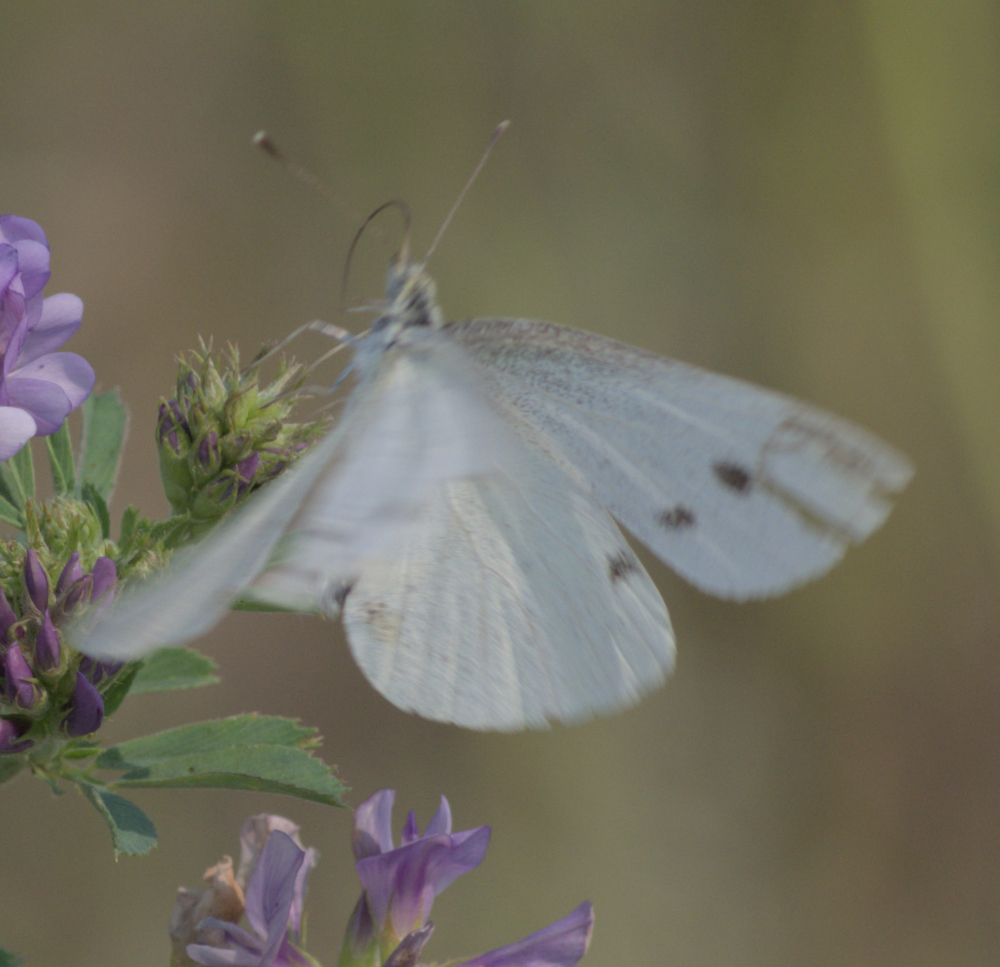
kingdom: Animalia
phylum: Arthropoda
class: Insecta
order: Lepidoptera
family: Pieridae
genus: Pieris
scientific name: Pieris rapae
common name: Small white
